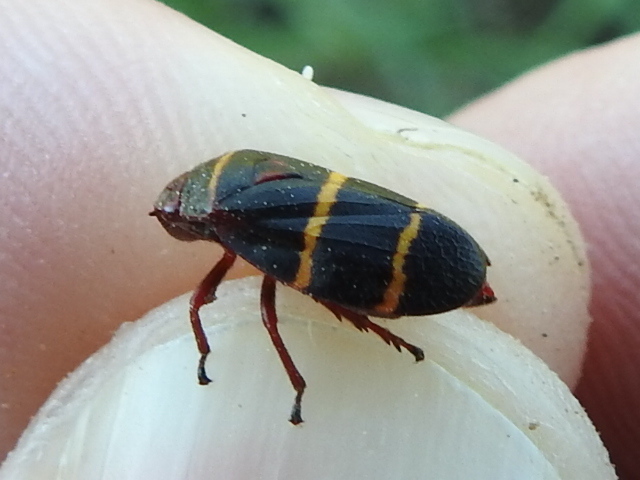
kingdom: Animalia
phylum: Arthropoda
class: Insecta
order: Hemiptera
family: Cercopidae
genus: Prosapia
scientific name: Prosapia bicincta
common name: Twolined spittlebug
